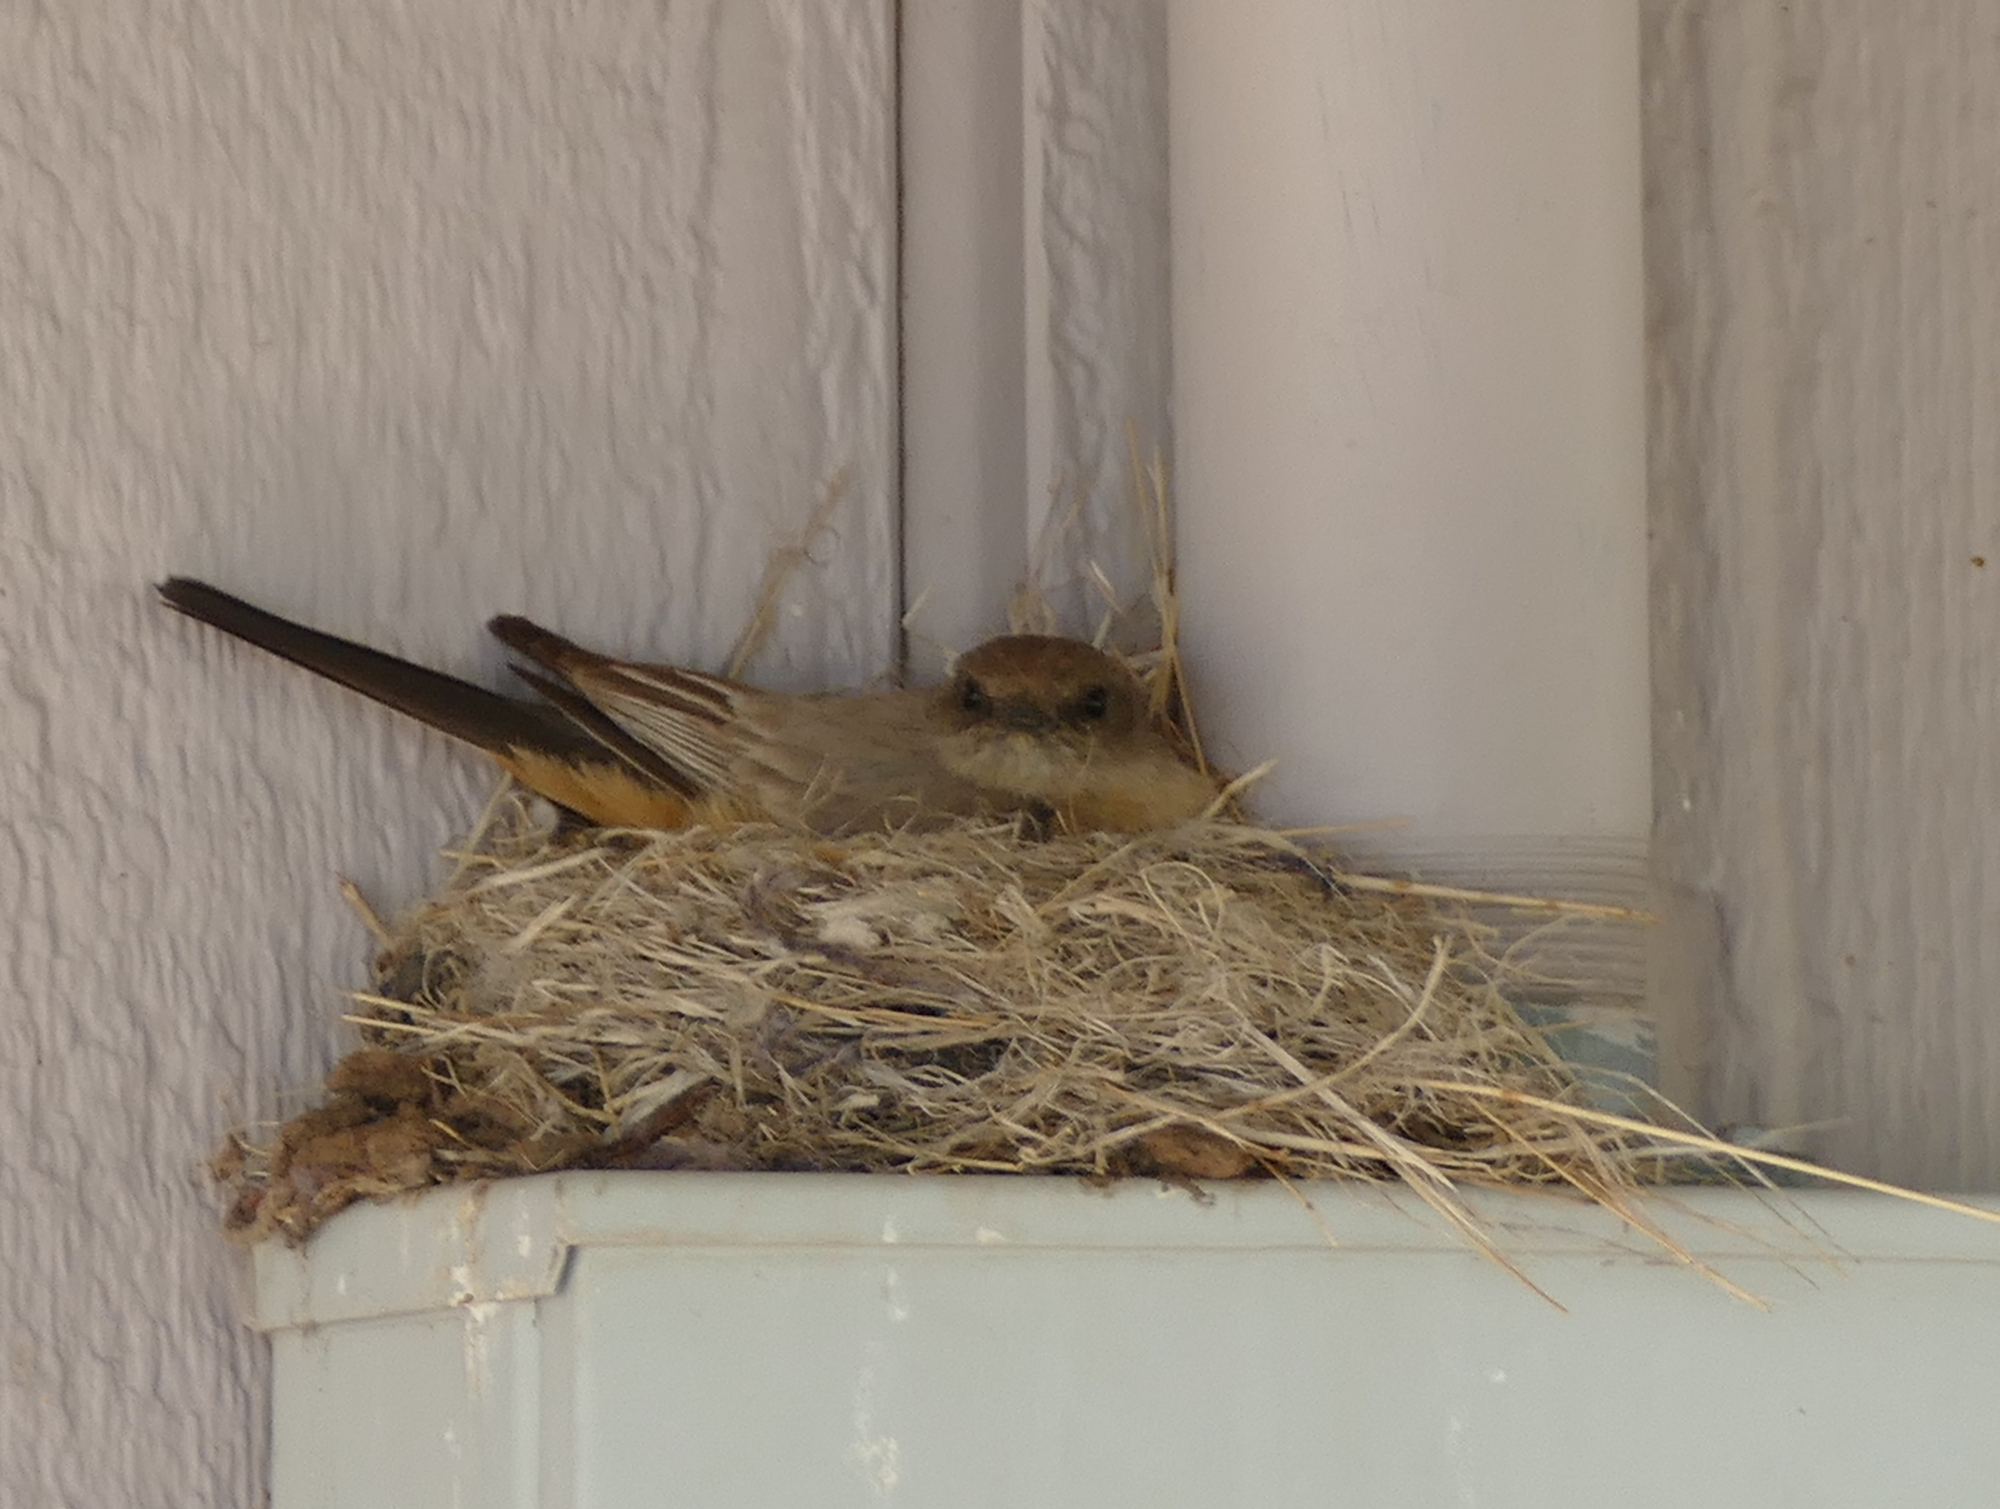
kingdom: Animalia
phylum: Chordata
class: Aves
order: Passeriformes
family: Tyrannidae
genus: Sayornis
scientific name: Sayornis saya
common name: Say's phoebe
